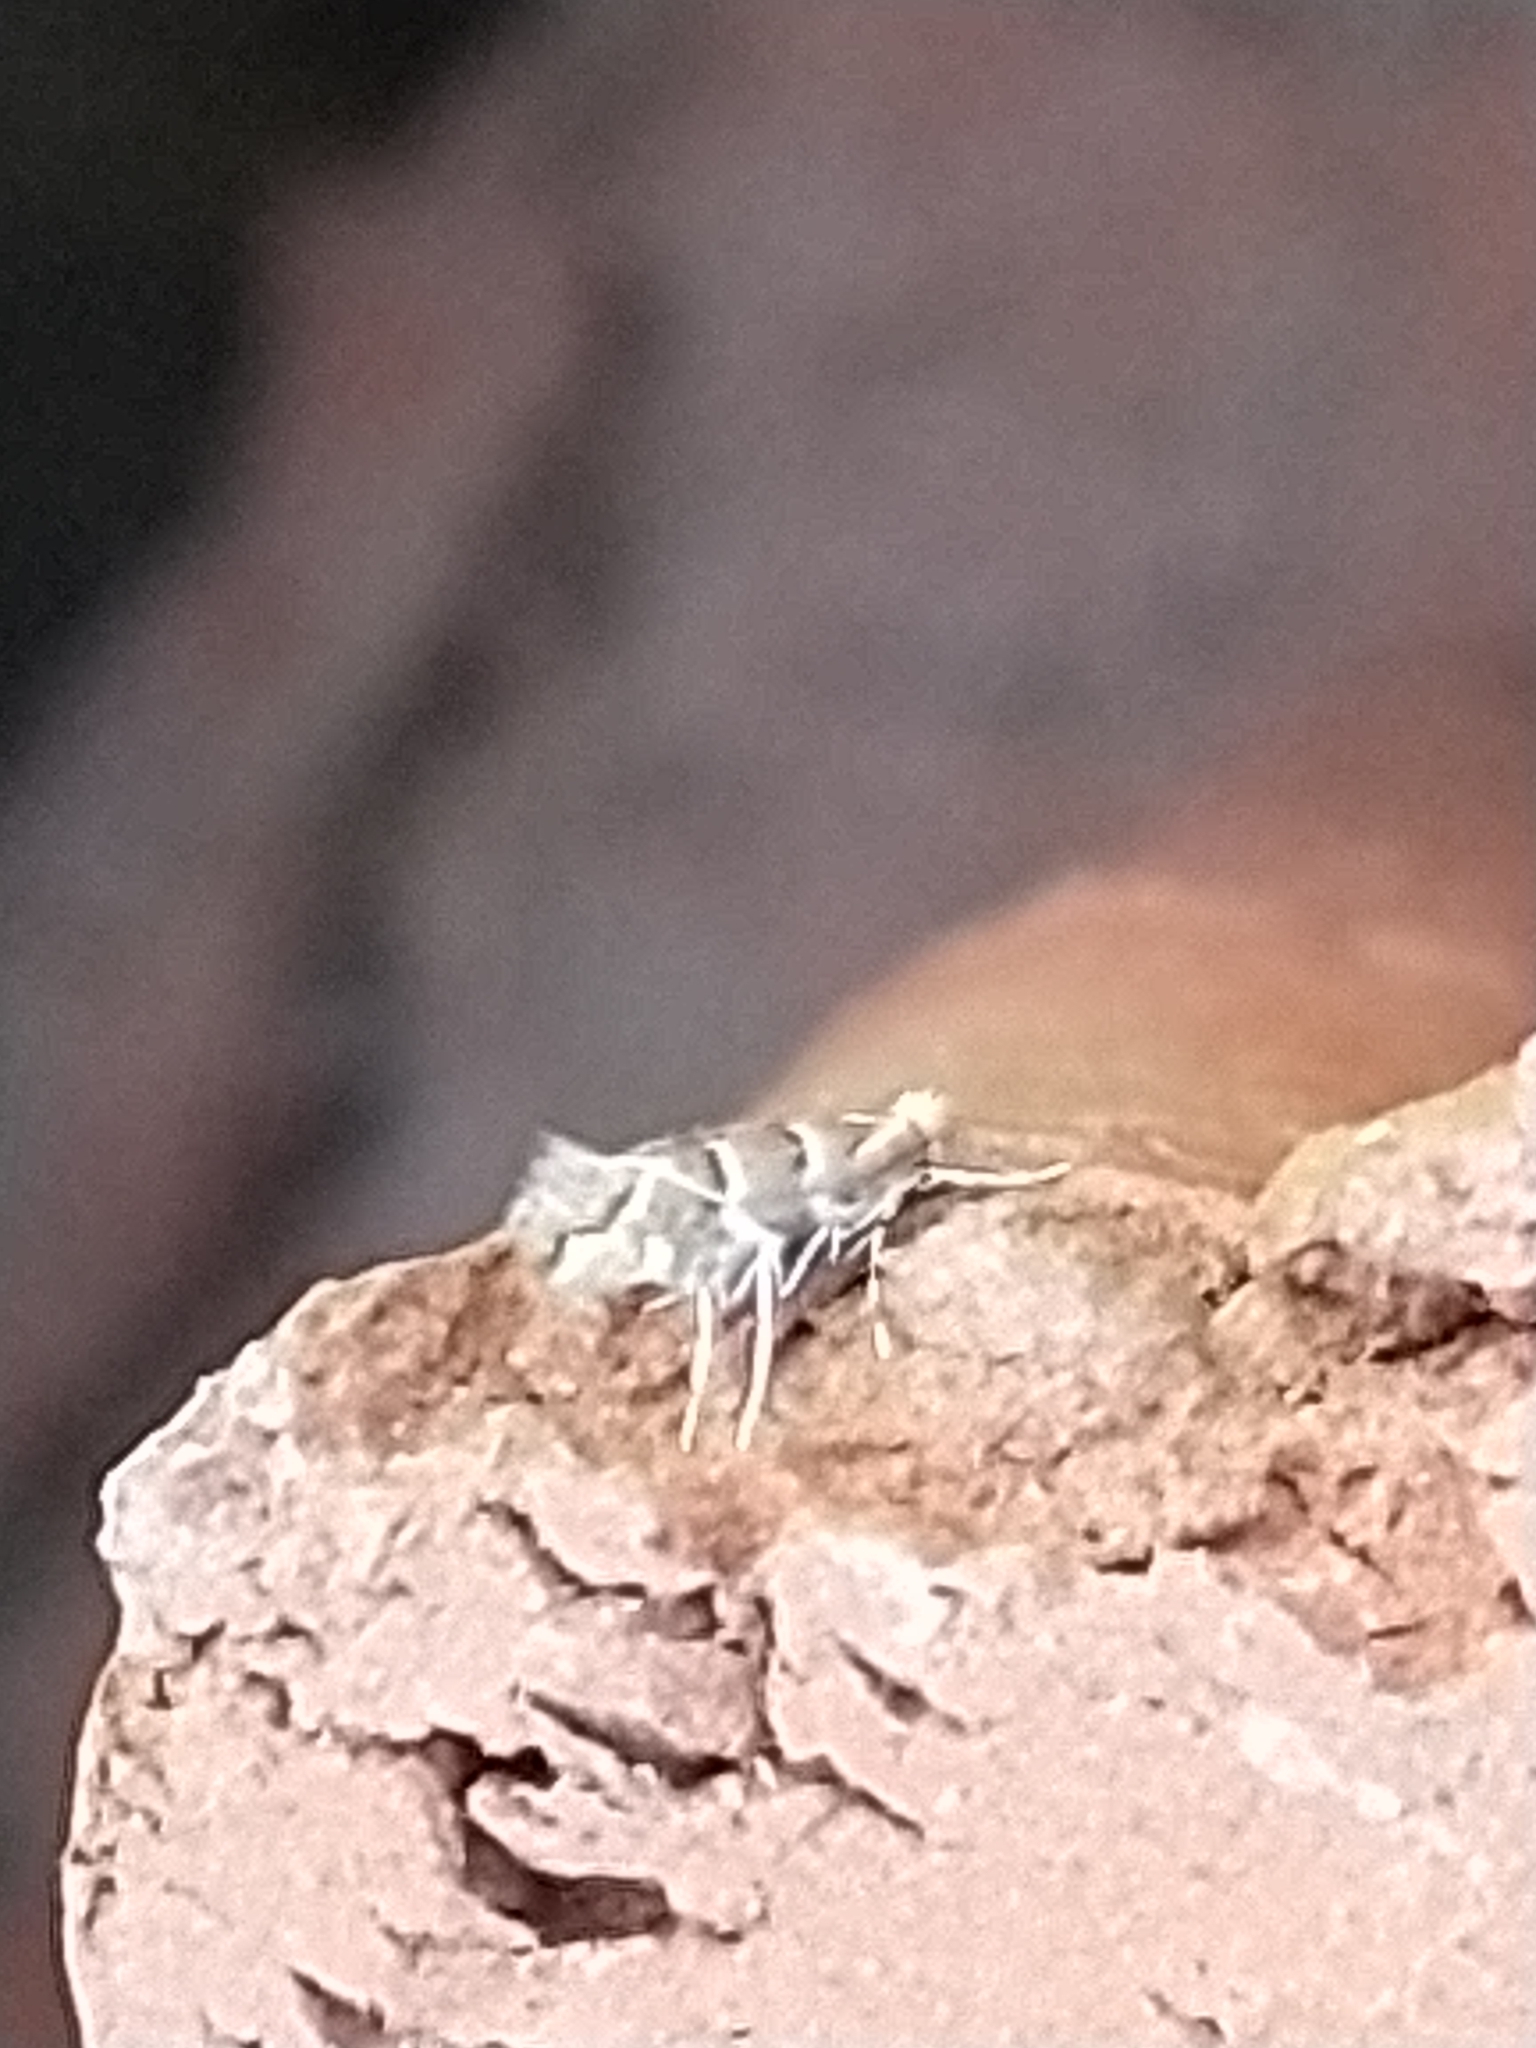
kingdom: Animalia
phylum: Arthropoda
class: Insecta
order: Lepidoptera
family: Gracillariidae
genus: Cameraria
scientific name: Cameraria ohridella
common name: Horse-chestnut leaf-miner
